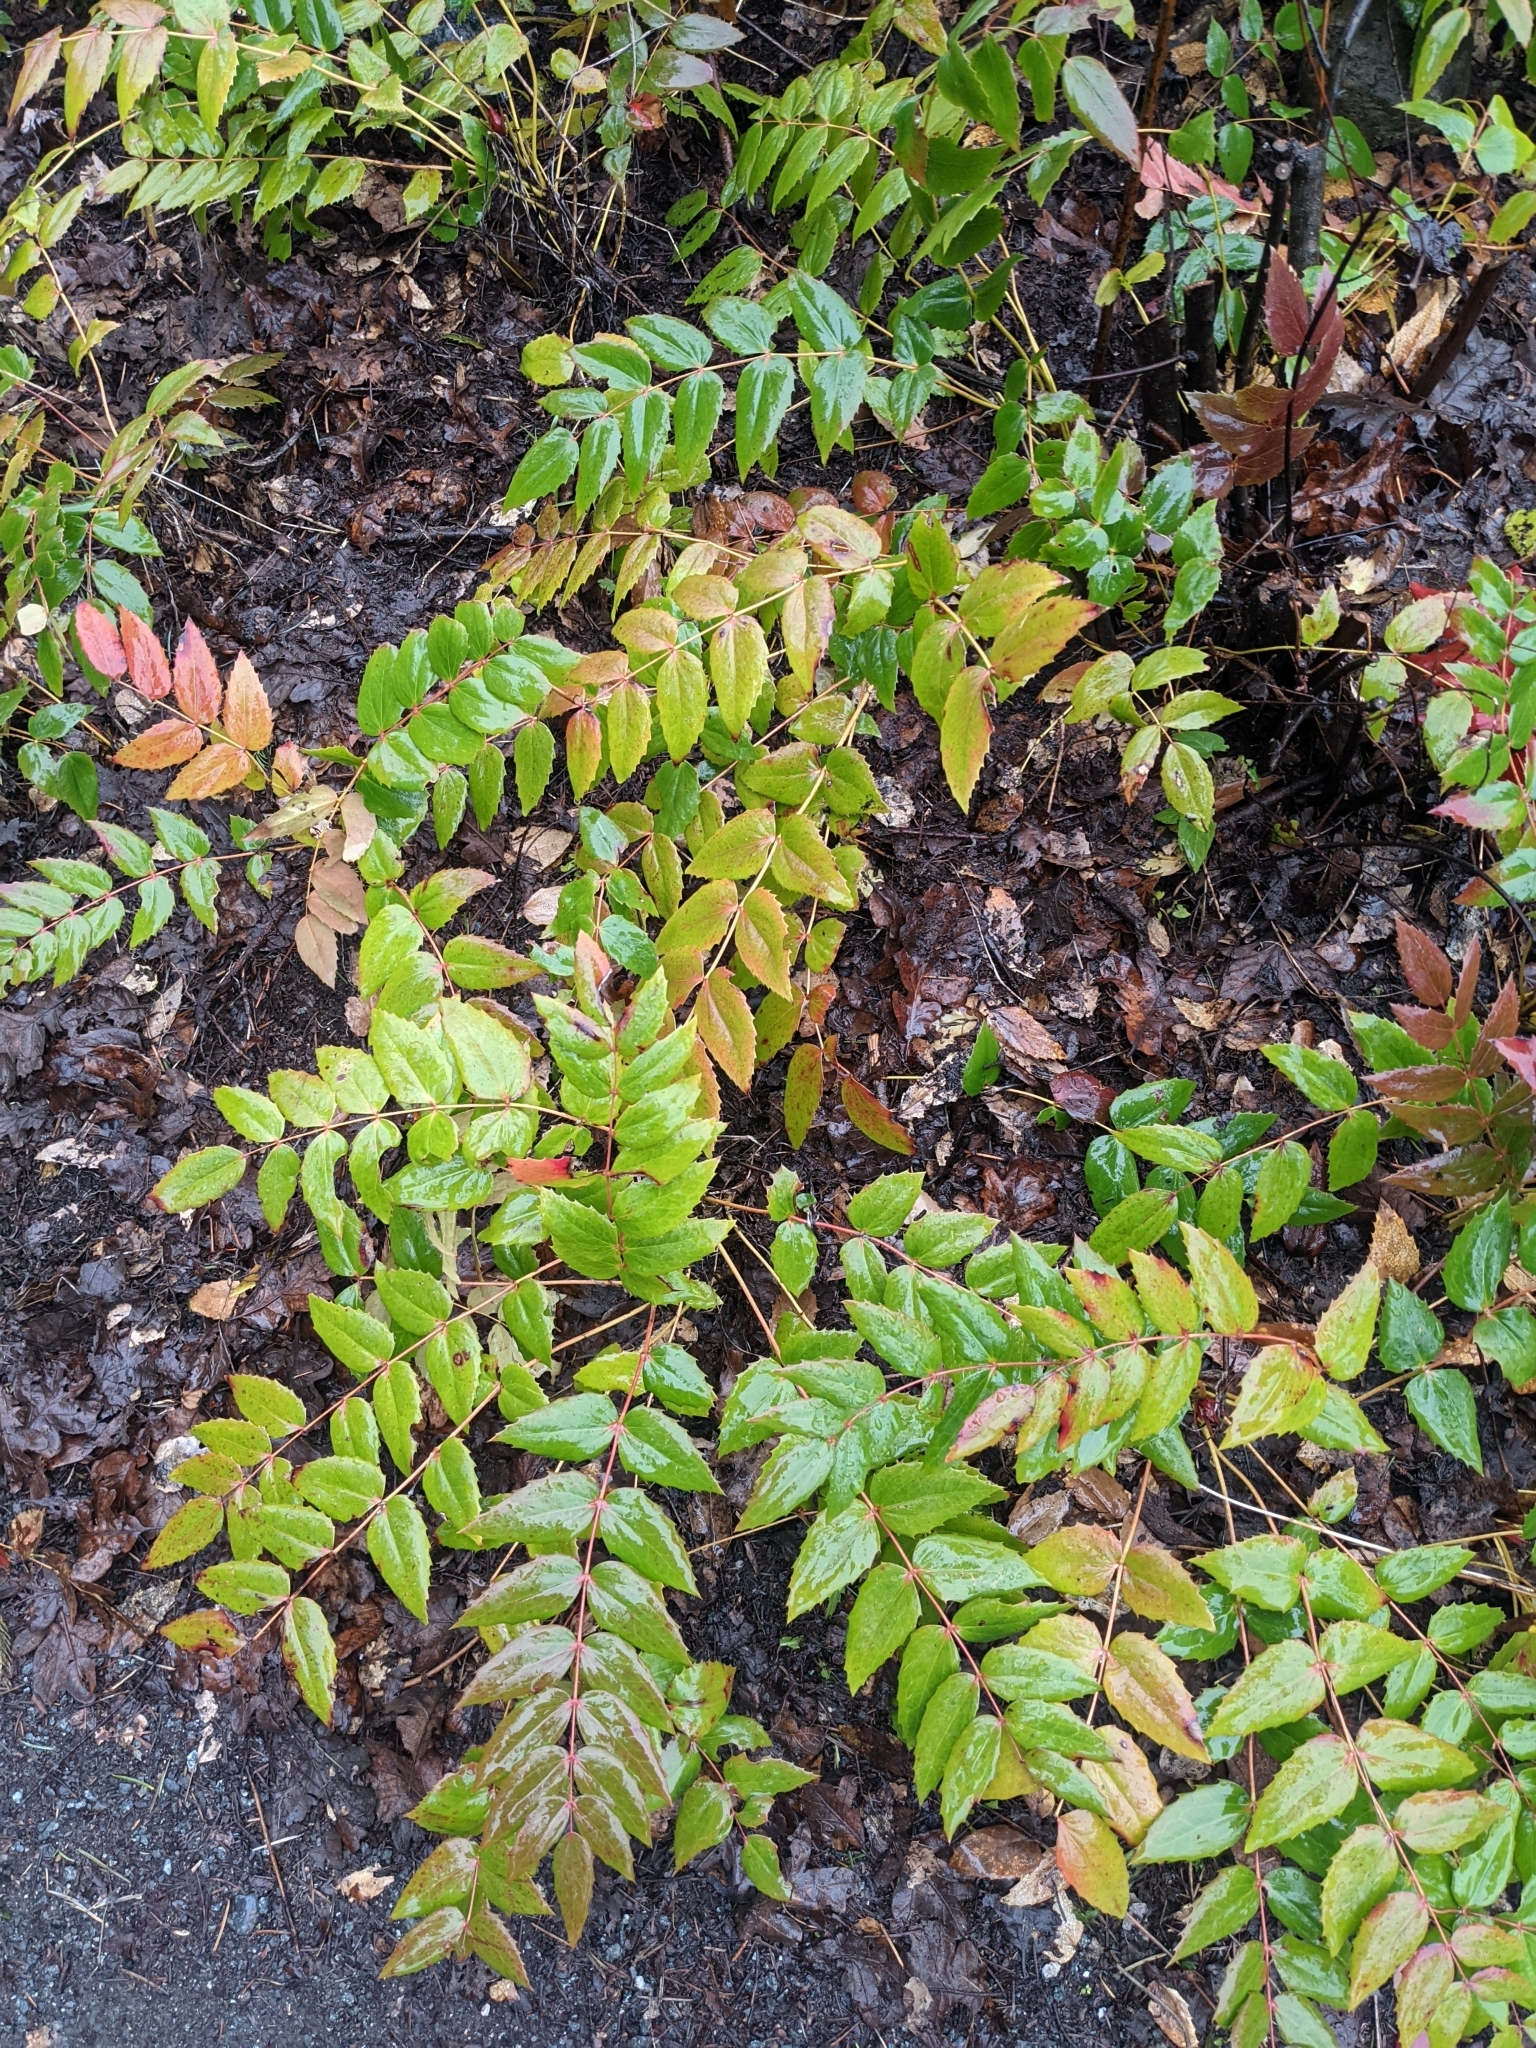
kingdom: Plantae
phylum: Tracheophyta
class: Magnoliopsida
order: Ranunculales
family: Berberidaceae
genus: Mahonia
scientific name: Mahonia nervosa
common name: Cascade oregon-grape
